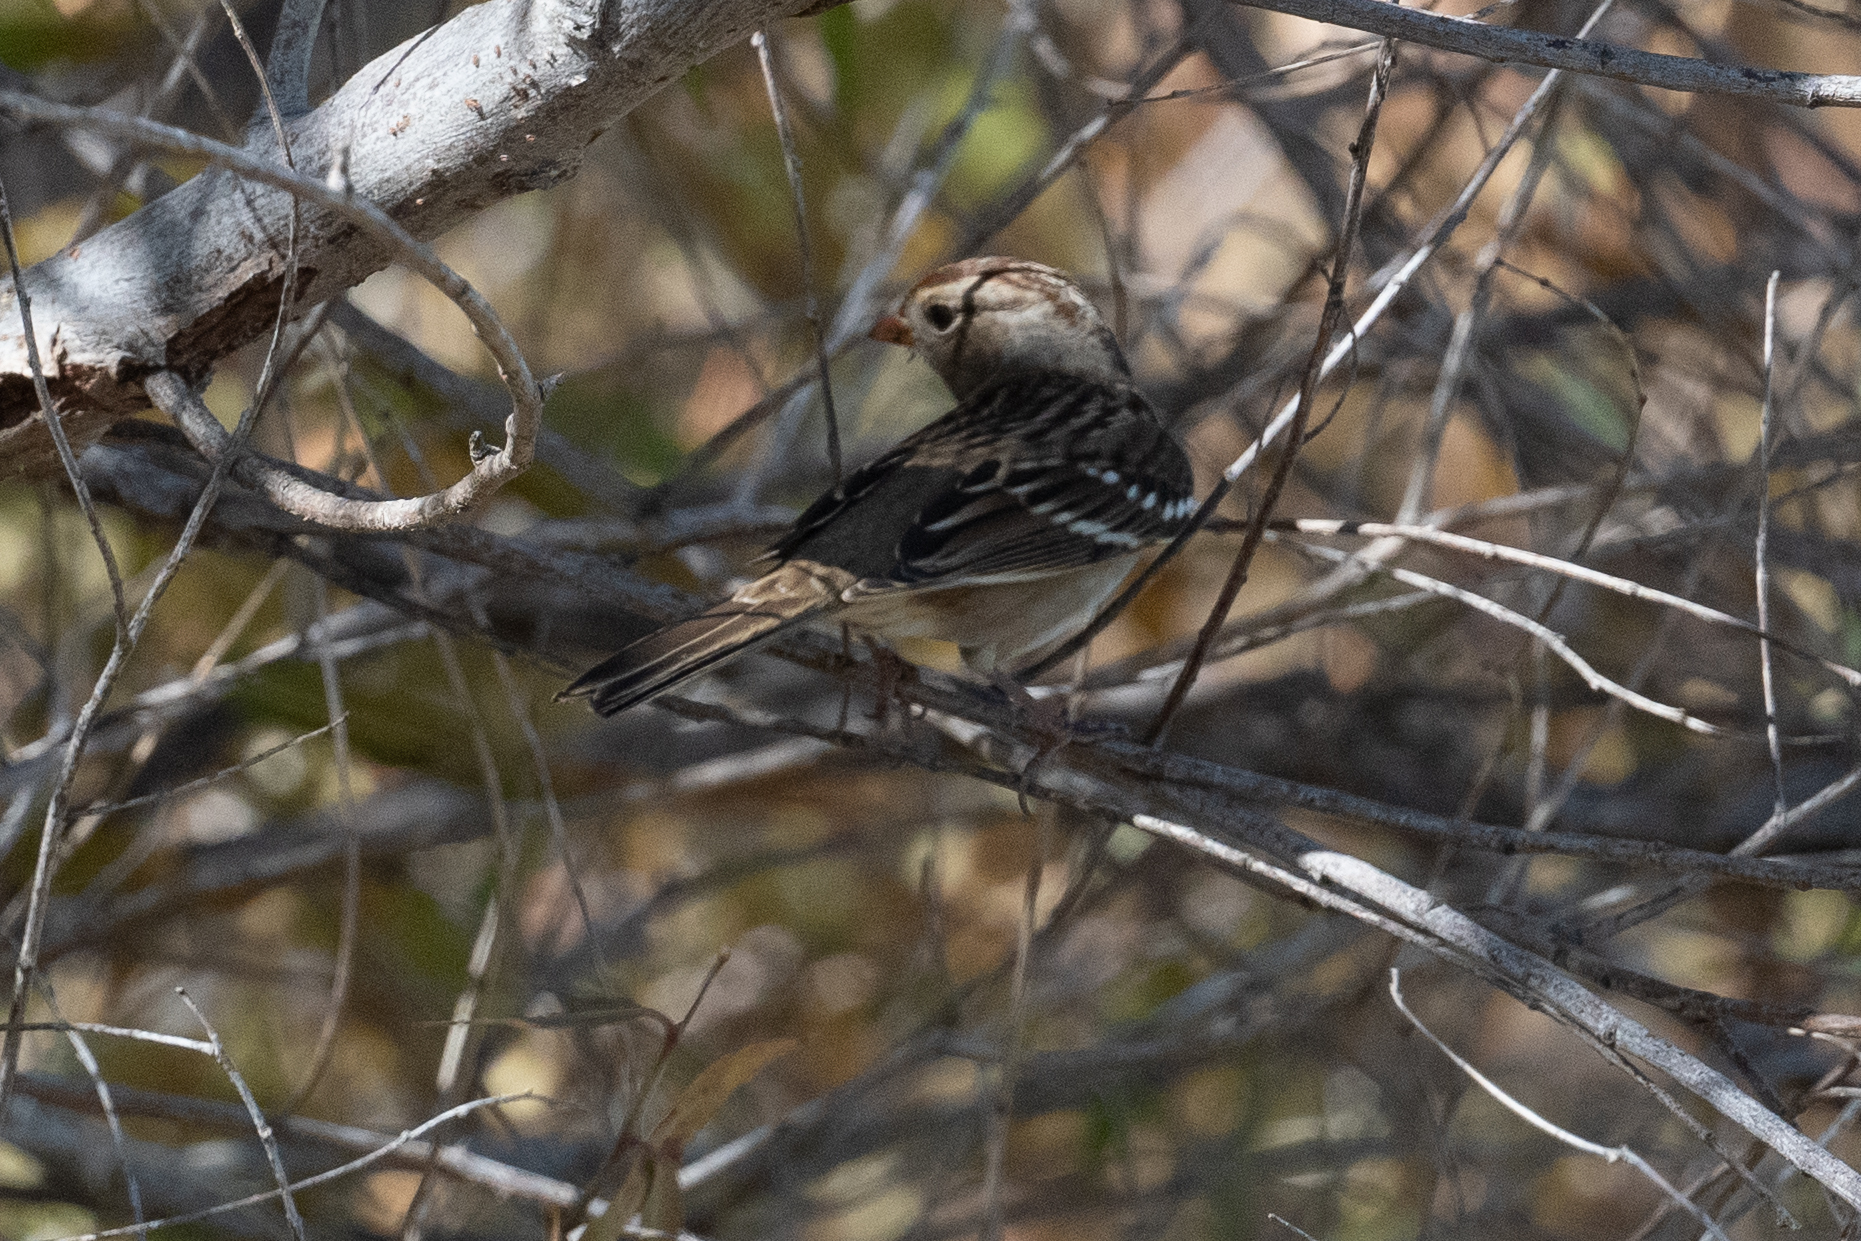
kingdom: Animalia
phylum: Chordata
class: Aves
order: Passeriformes
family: Passerellidae
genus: Zonotrichia
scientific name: Zonotrichia leucophrys
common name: White-crowned sparrow
